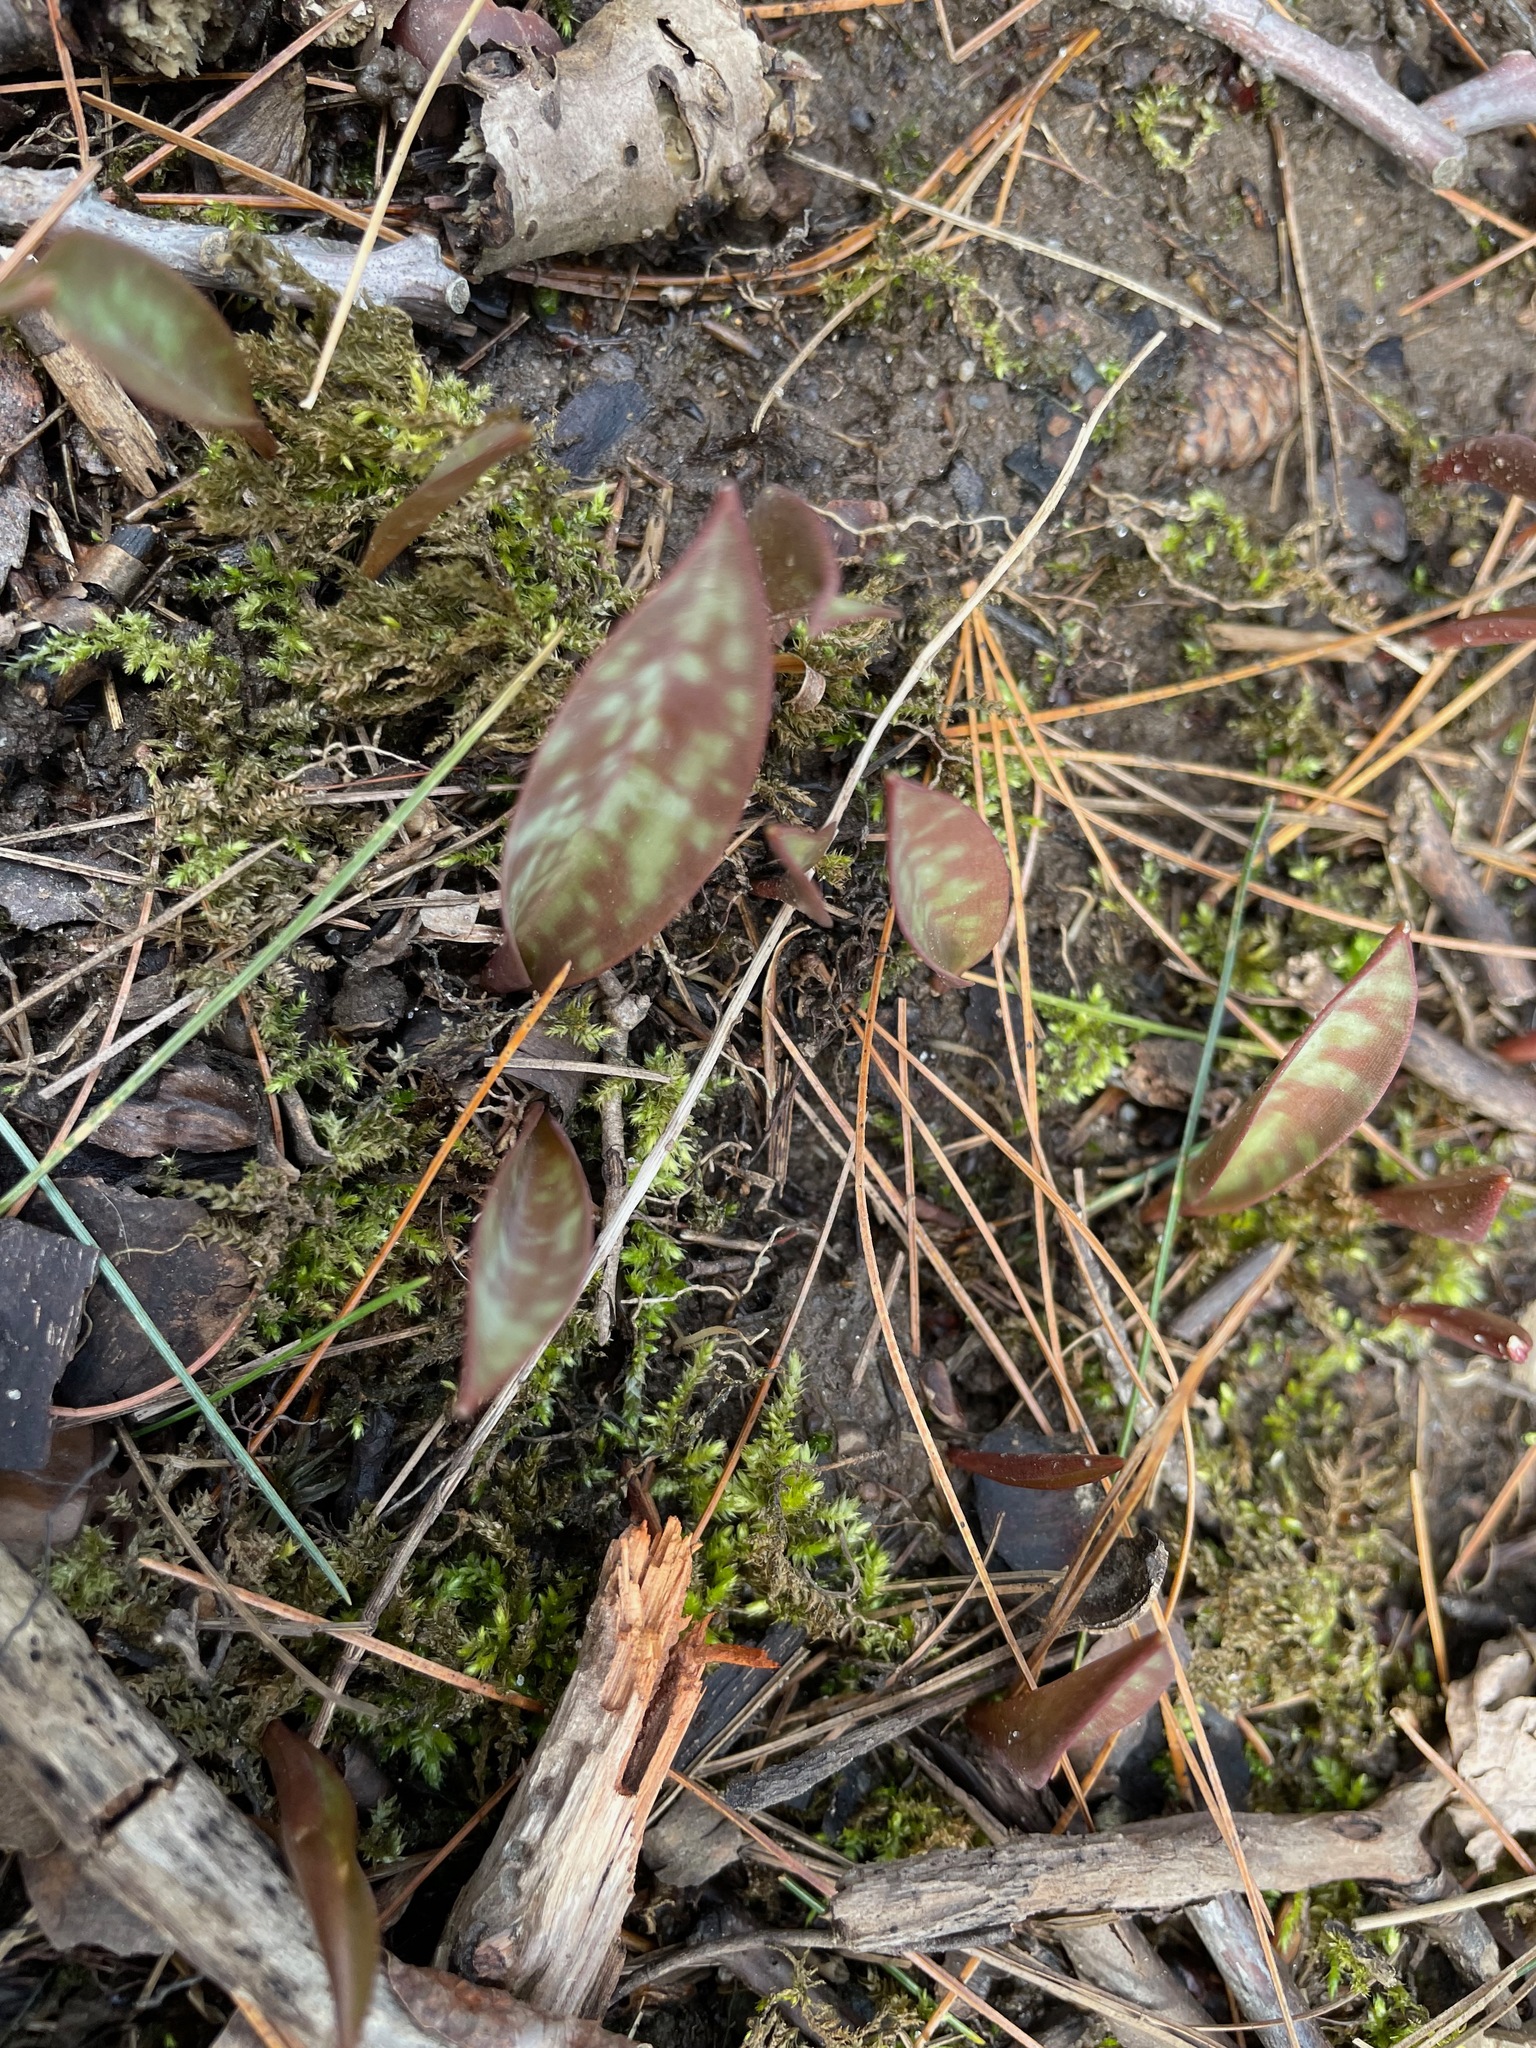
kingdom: Plantae
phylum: Tracheophyta
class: Liliopsida
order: Liliales
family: Liliaceae
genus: Erythronium
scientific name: Erythronium americanum
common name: Yellow adder's-tongue
